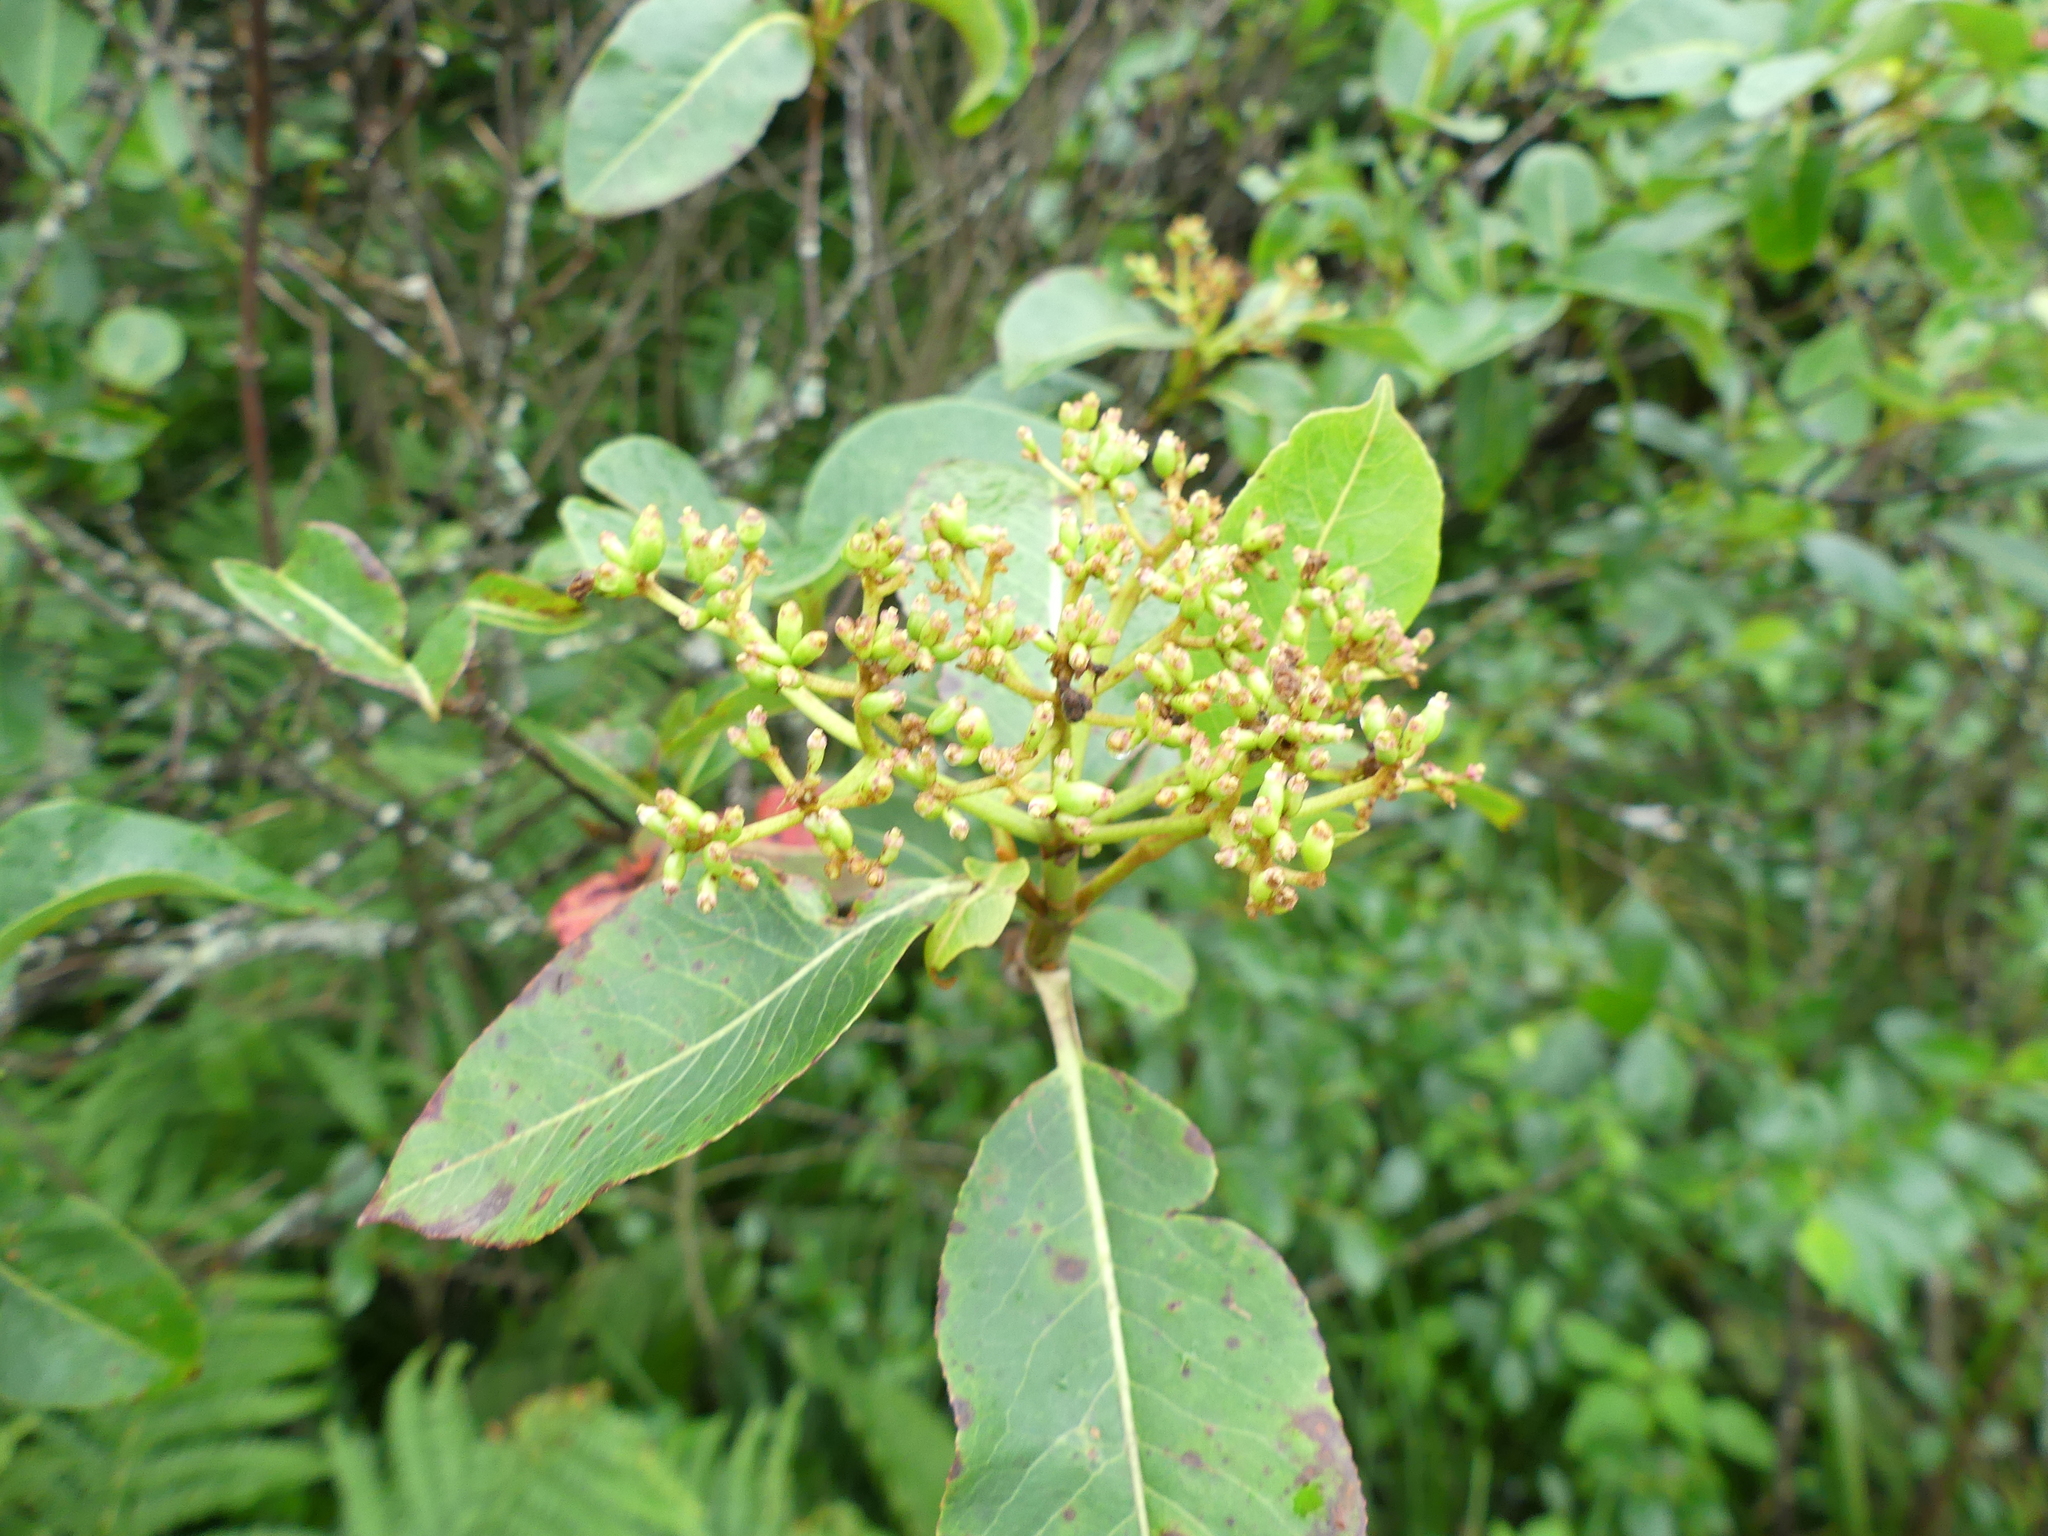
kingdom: Plantae
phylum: Tracheophyta
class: Magnoliopsida
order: Dipsacales
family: Viburnaceae
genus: Viburnum
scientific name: Viburnum cassinoides
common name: Swamp haw
